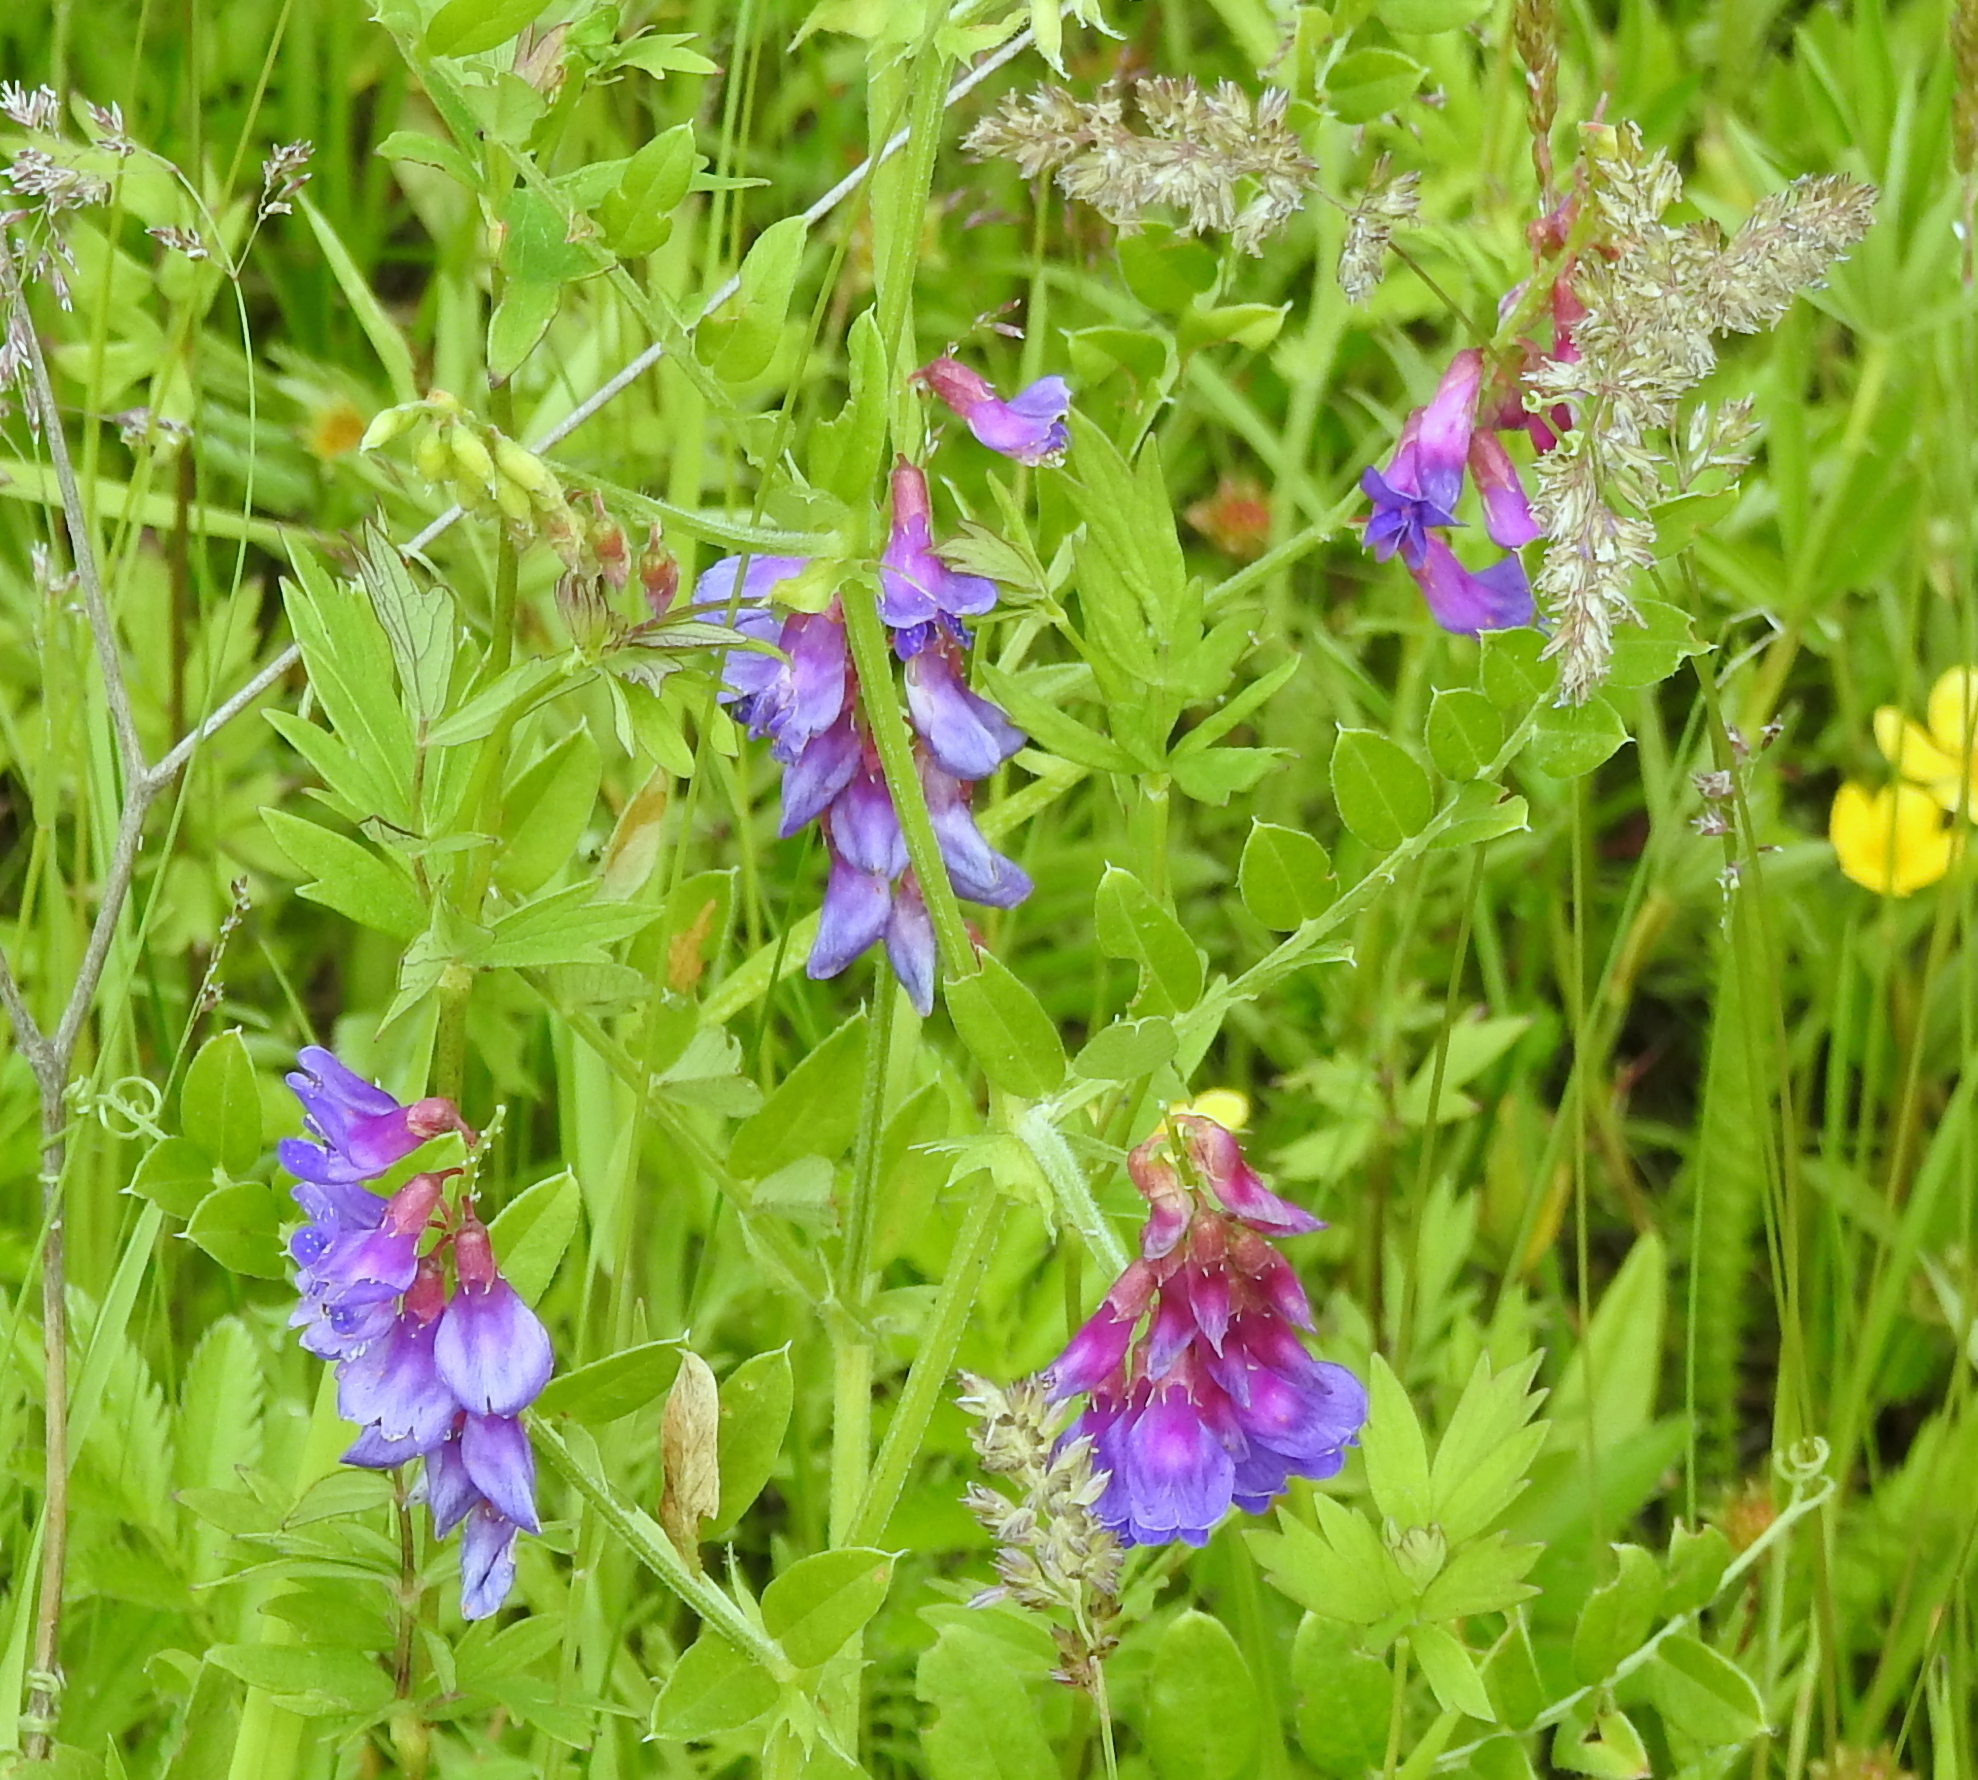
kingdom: Plantae
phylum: Tracheophyta
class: Magnoliopsida
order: Fabales
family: Fabaceae
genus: Vicia
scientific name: Vicia amoena
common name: Cheder ebs
